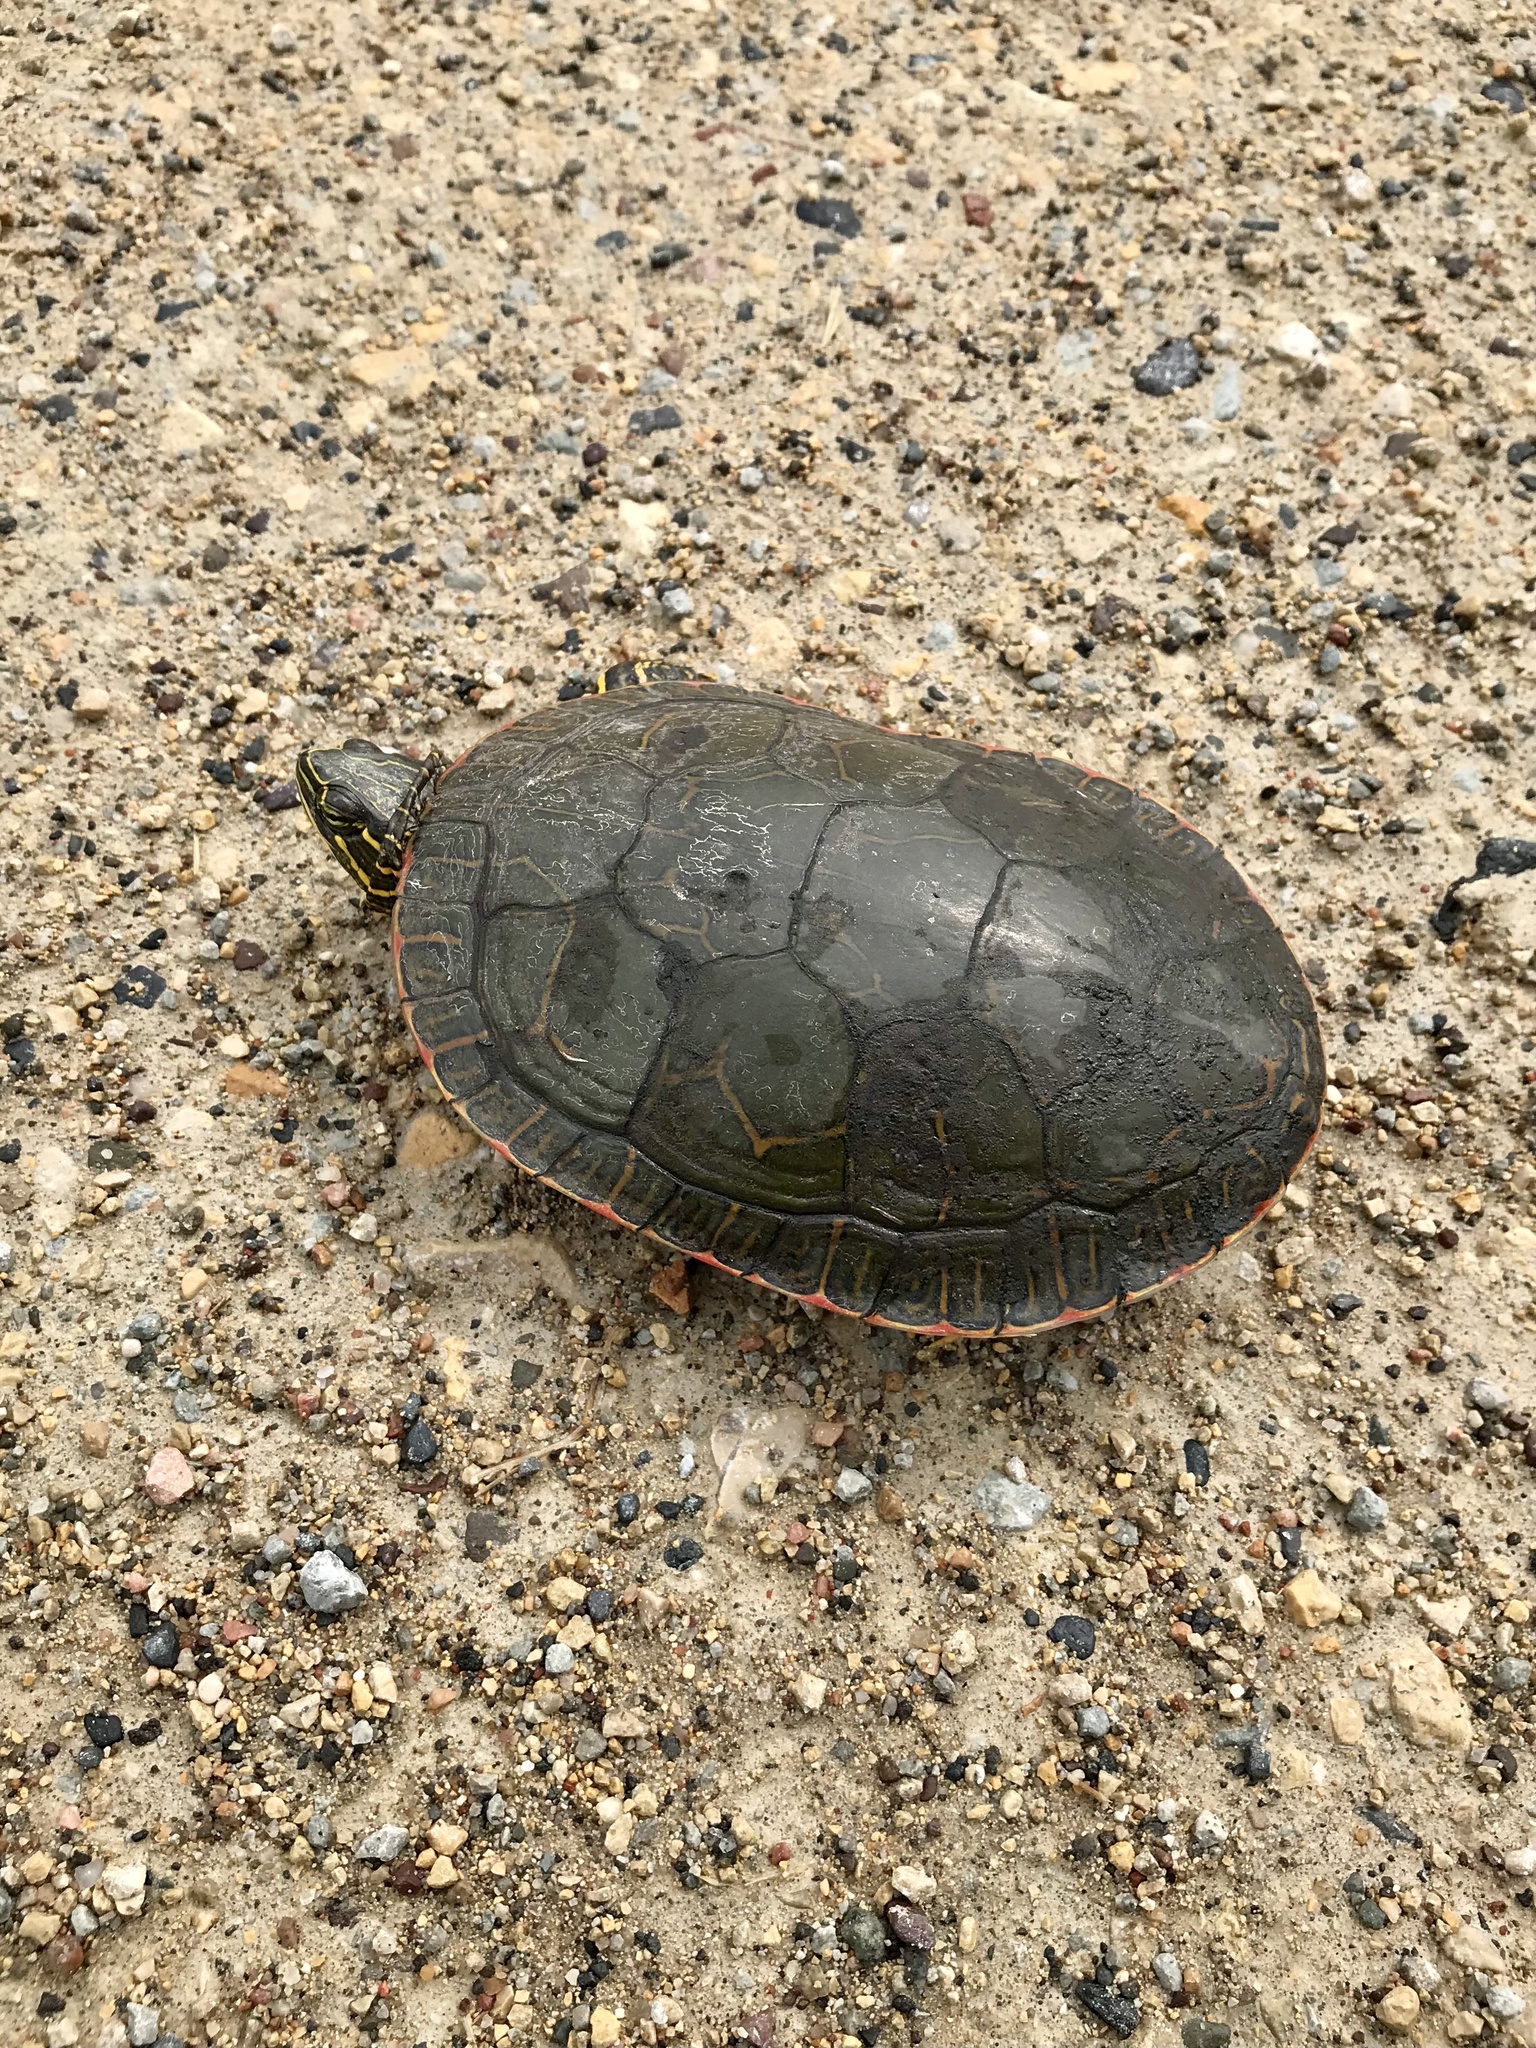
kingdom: Animalia
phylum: Chordata
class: Testudines
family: Emydidae
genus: Chrysemys
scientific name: Chrysemys picta
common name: Painted turtle
